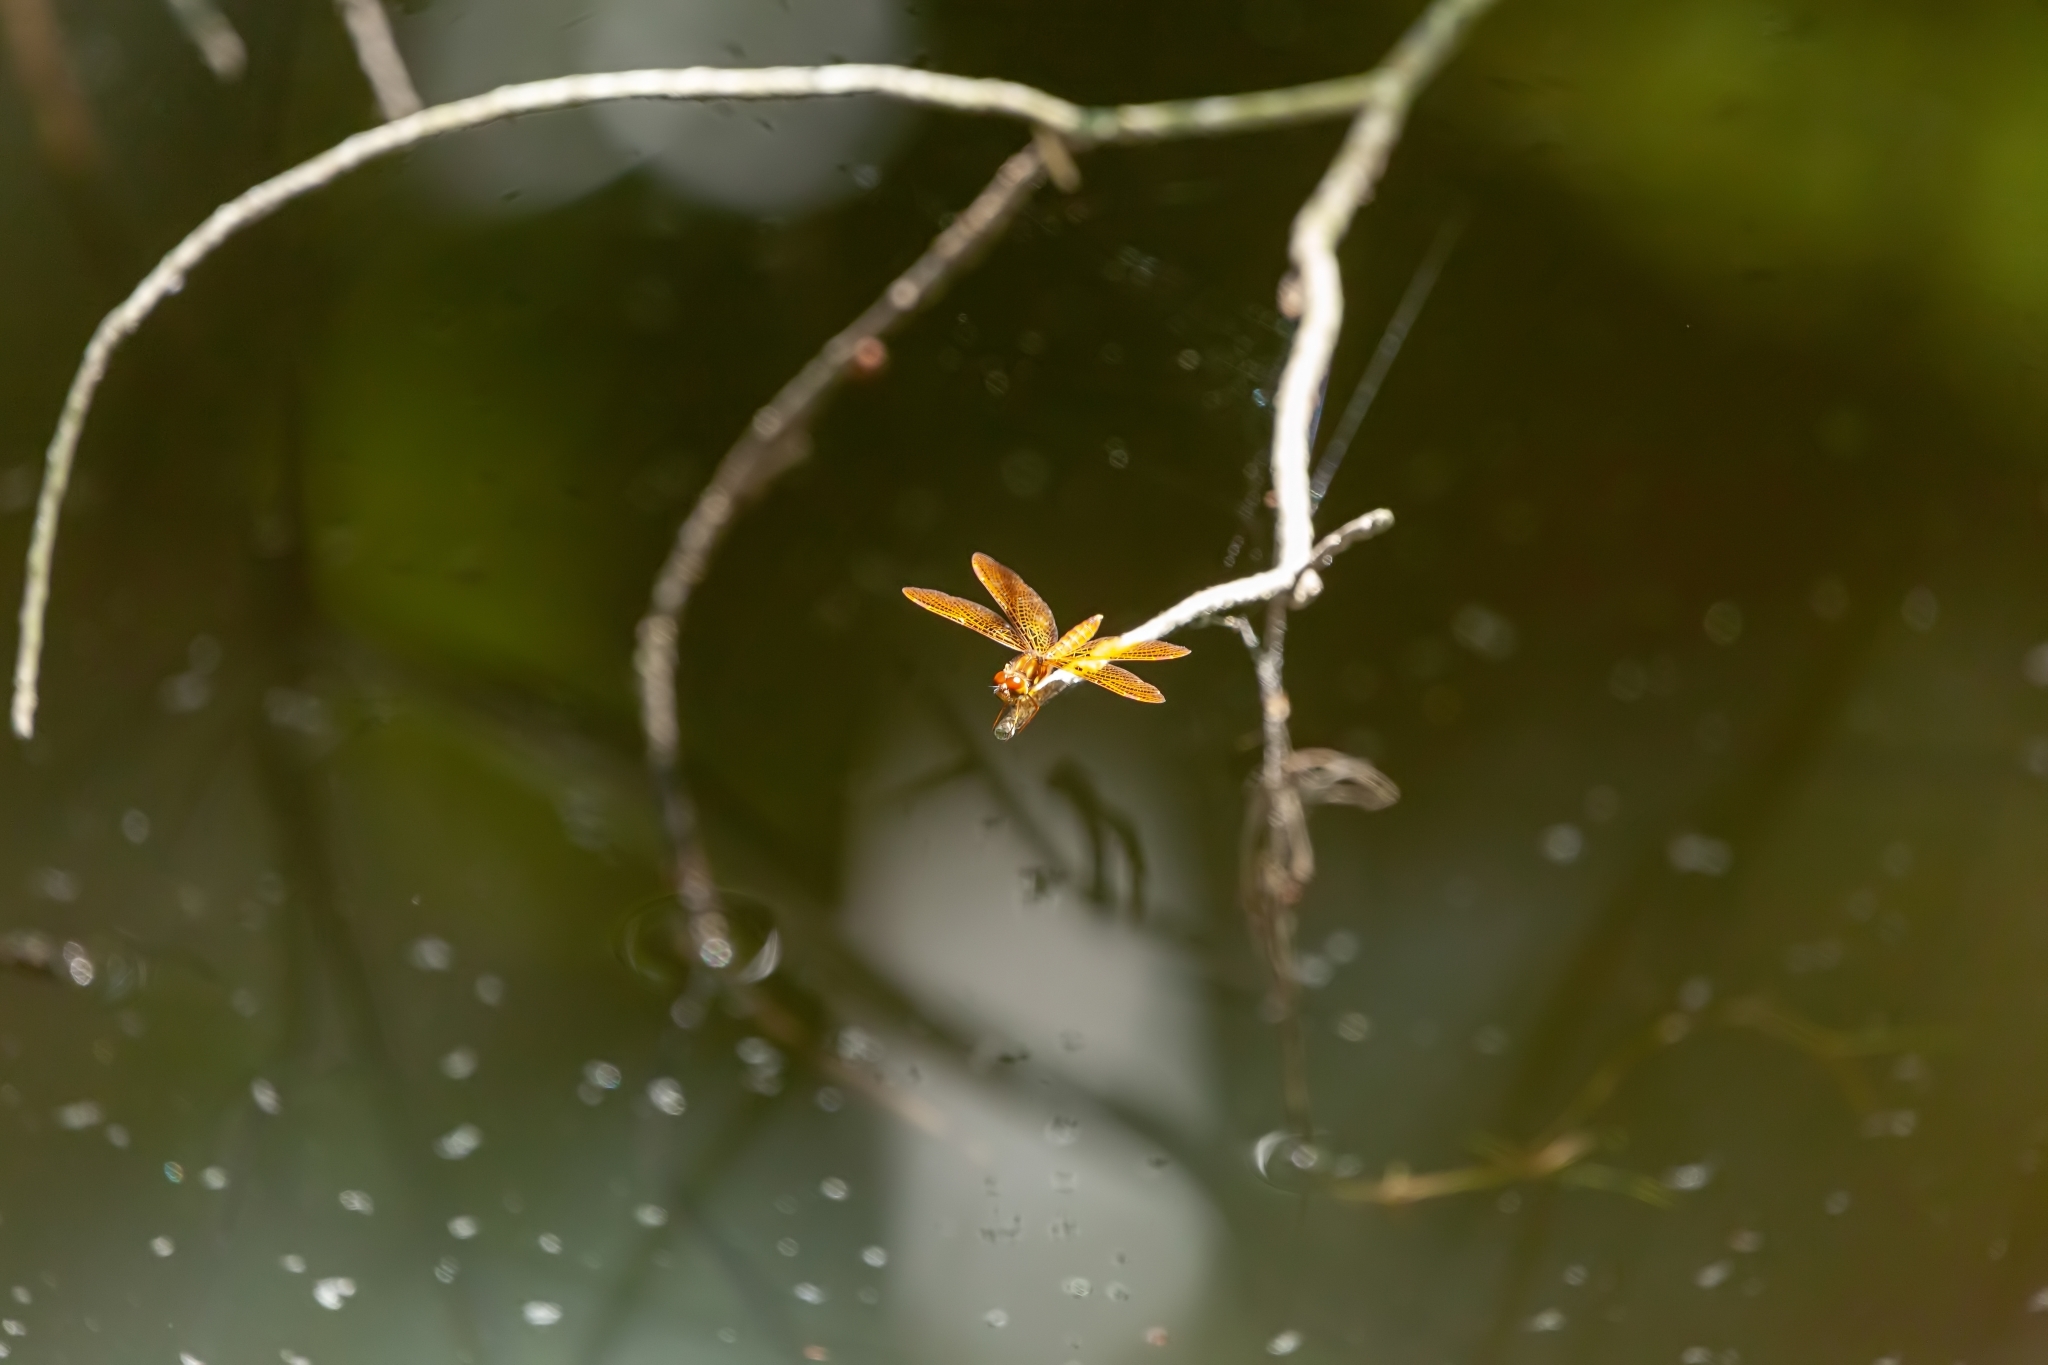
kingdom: Animalia
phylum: Arthropoda
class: Insecta
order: Odonata
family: Libellulidae
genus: Perithemis
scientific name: Perithemis tenera
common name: Eastern amberwing
